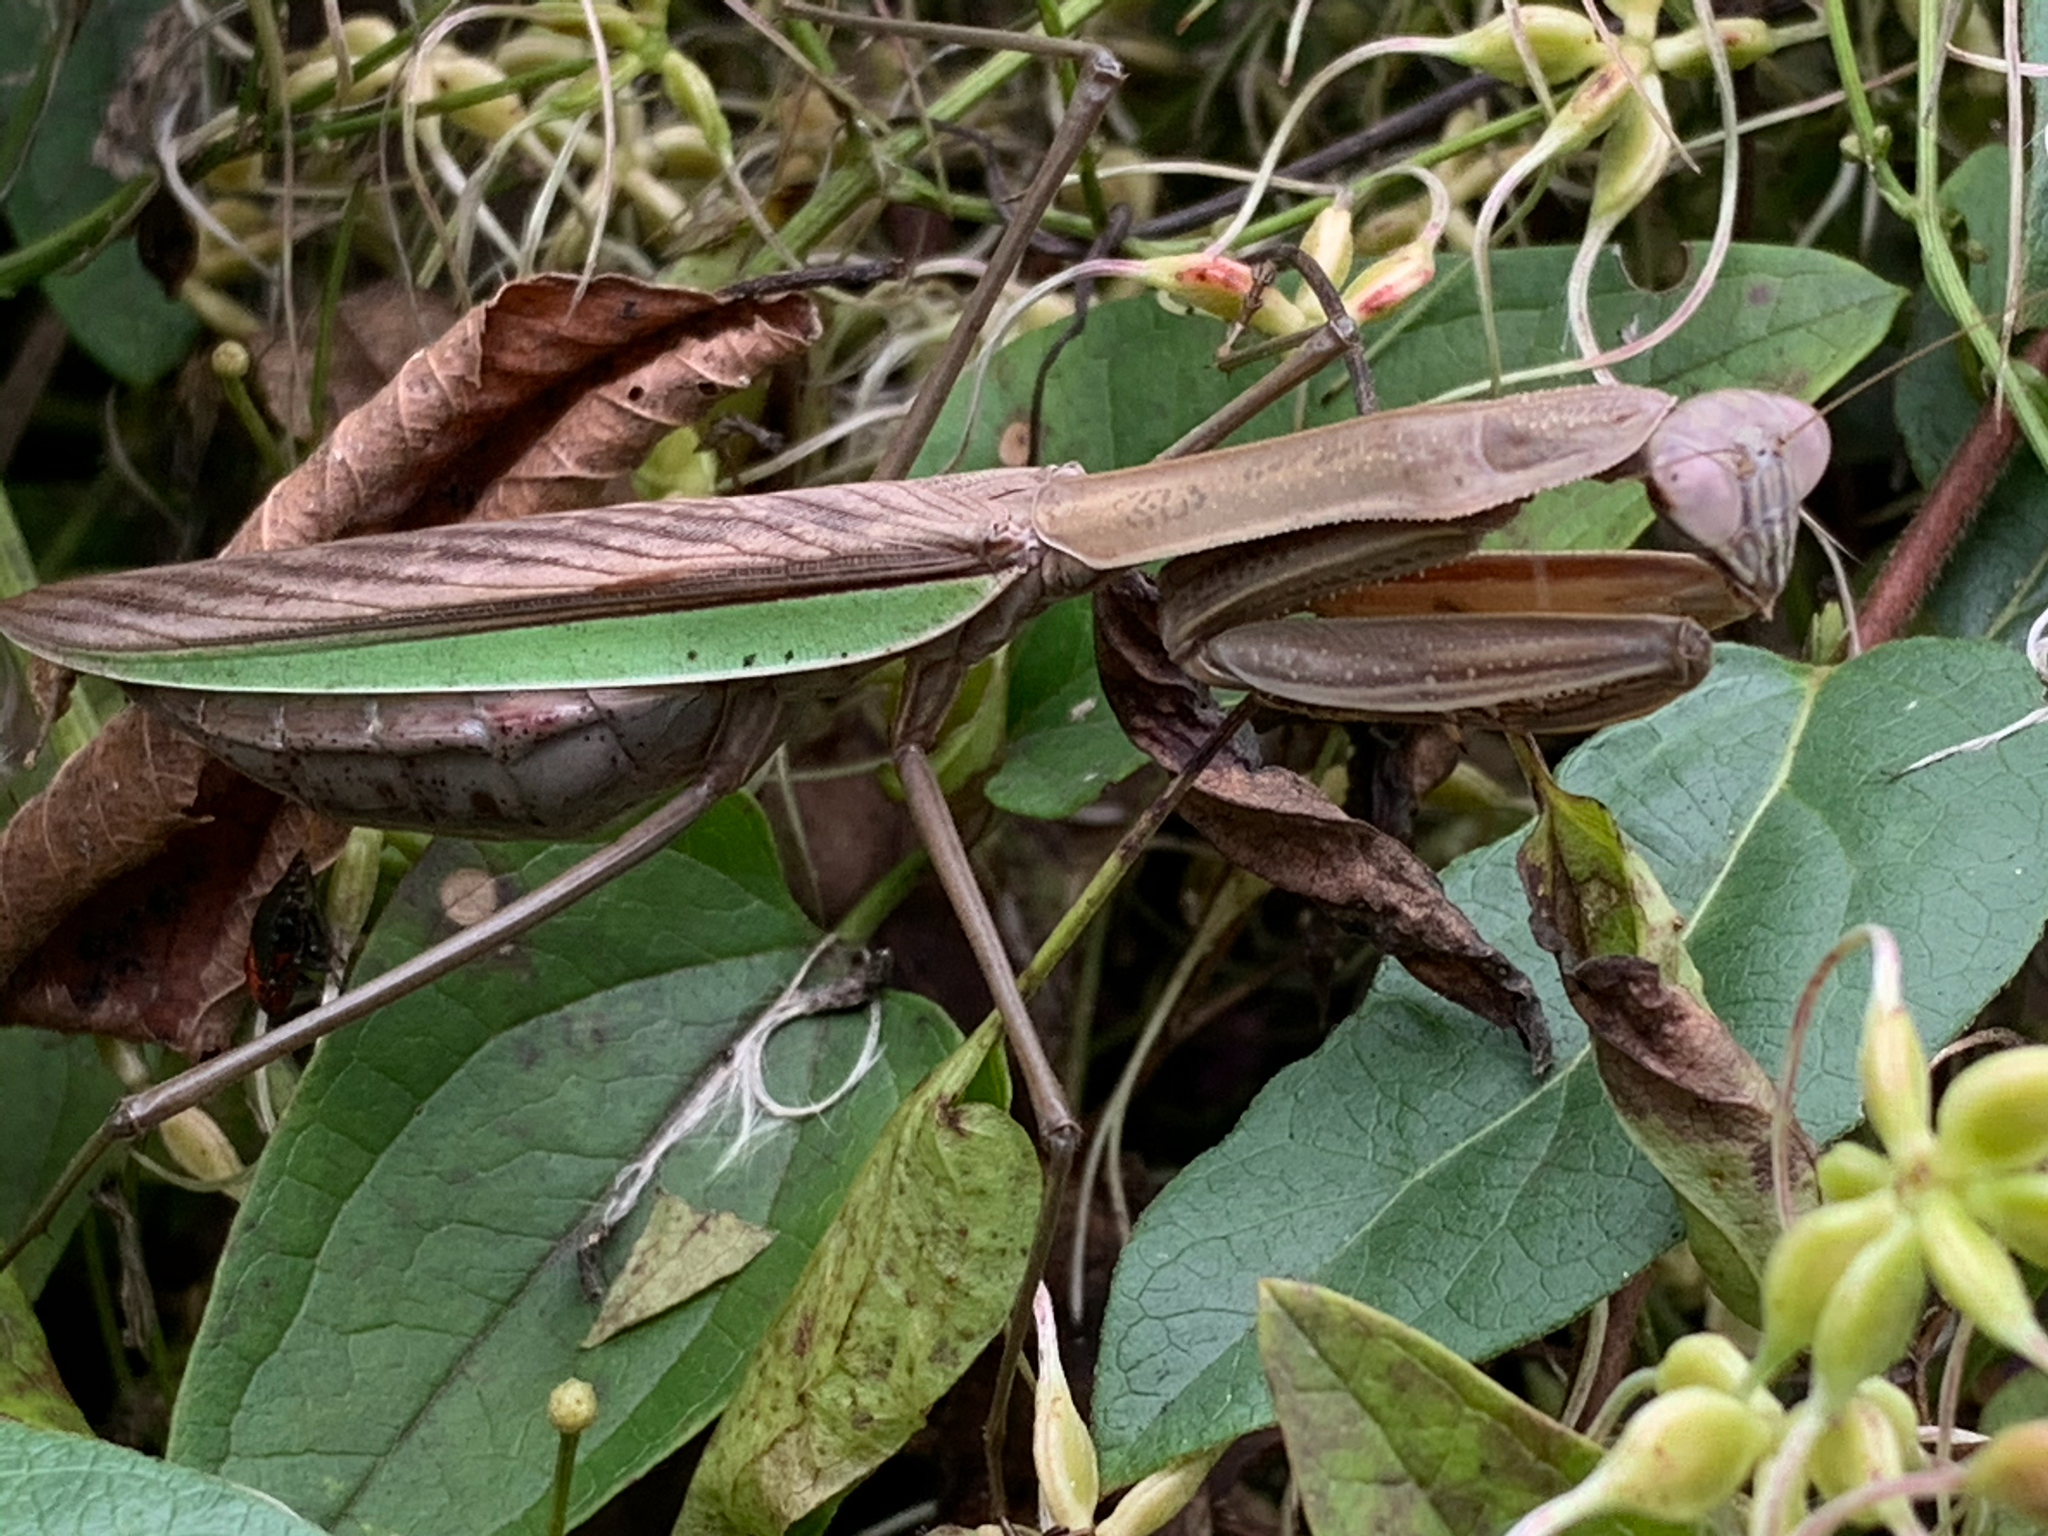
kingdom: Animalia
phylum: Arthropoda
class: Insecta
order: Mantodea
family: Mantidae
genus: Tenodera
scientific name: Tenodera sinensis
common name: Chinese mantis
